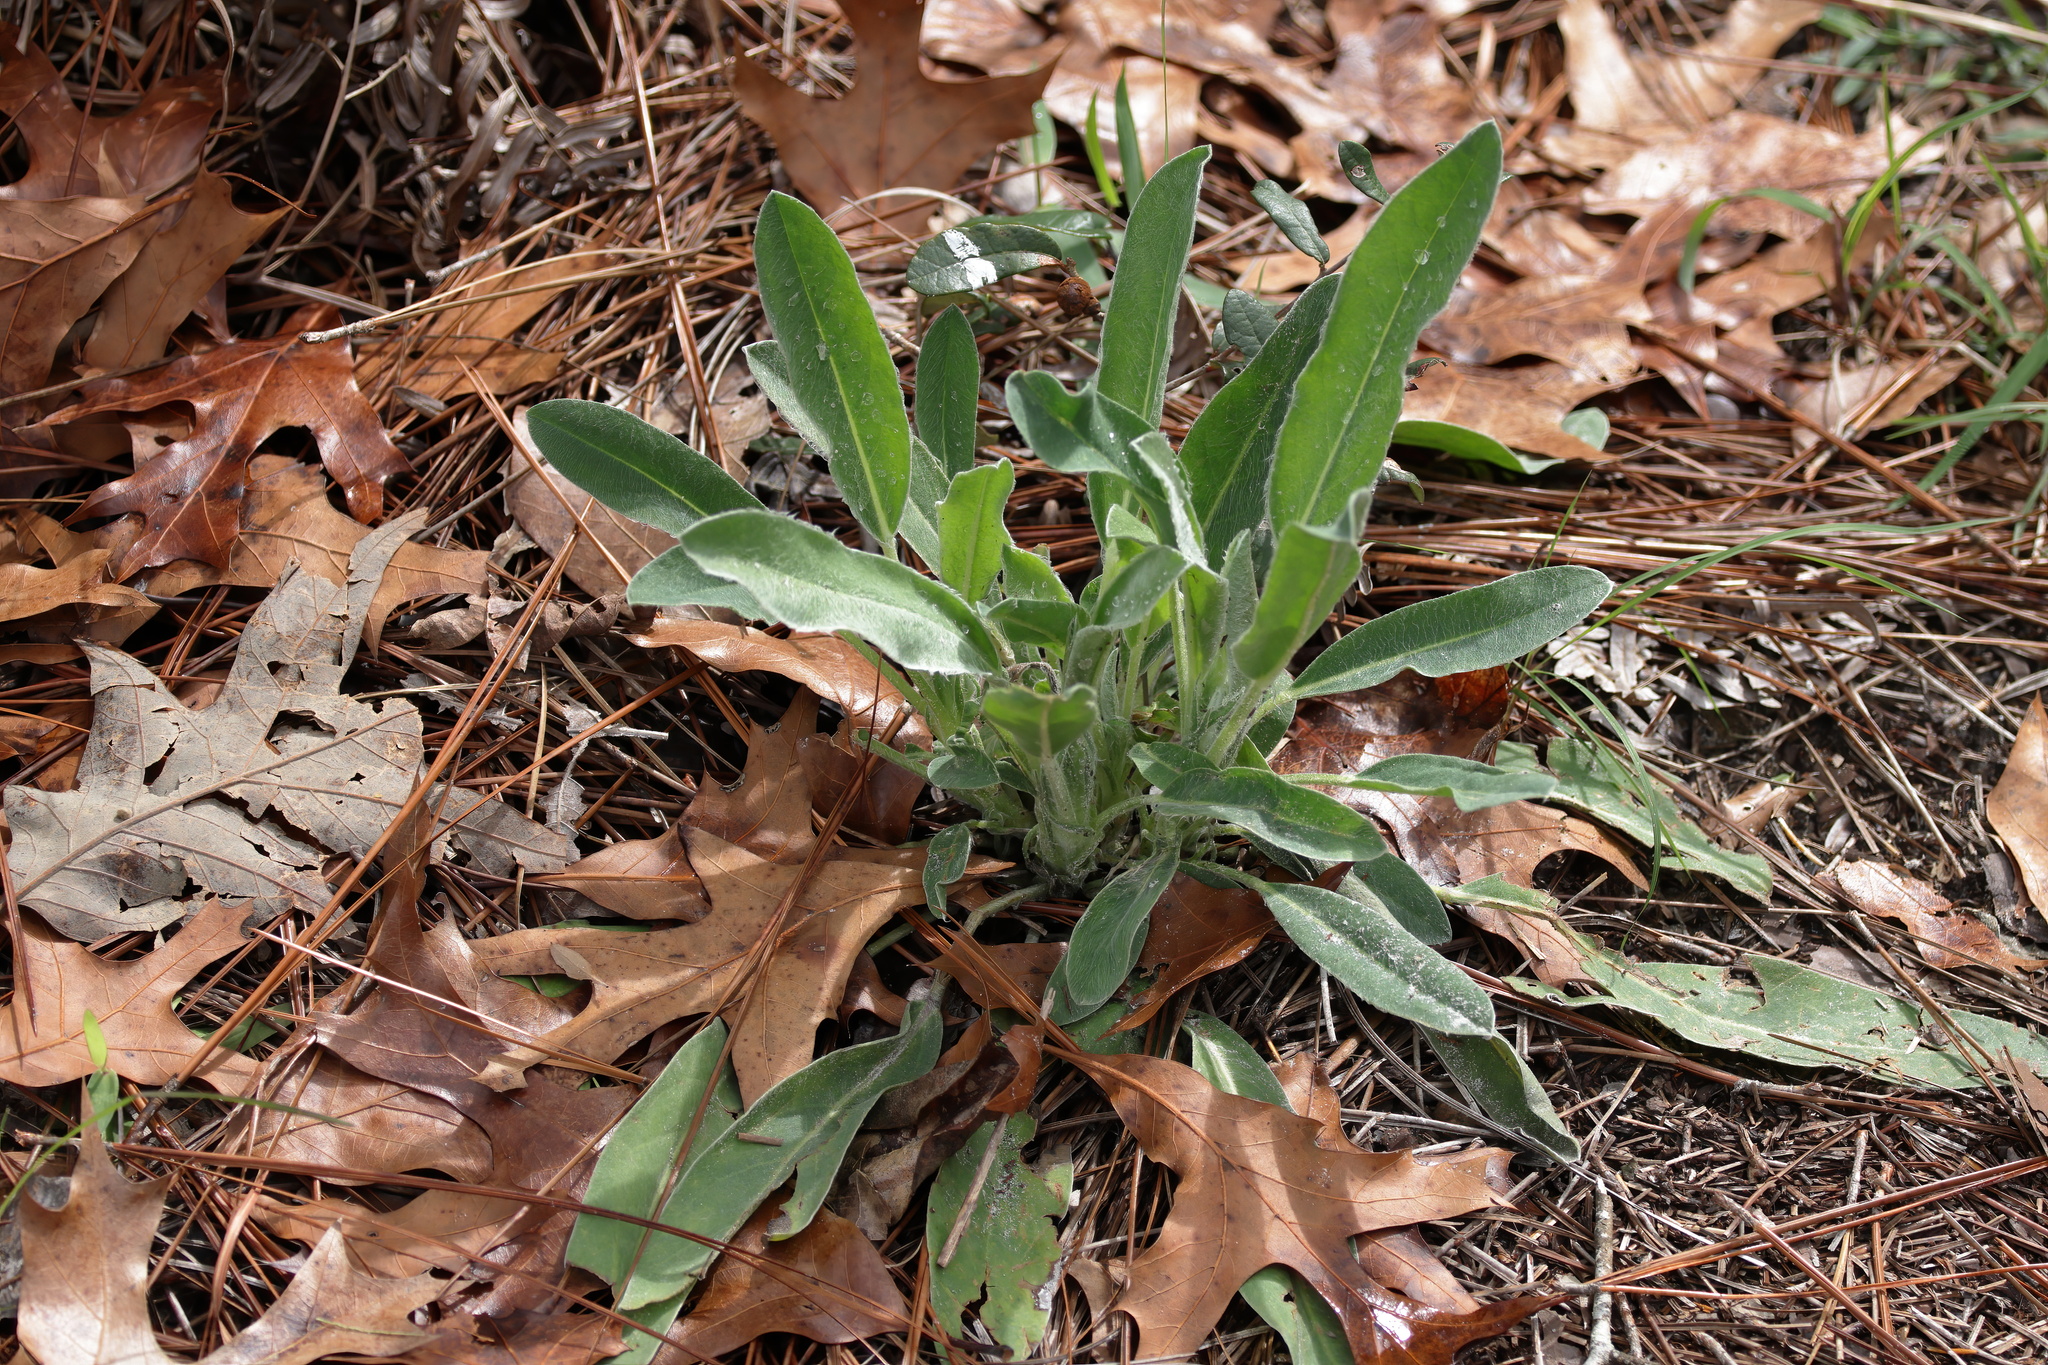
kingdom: Plantae
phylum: Tracheophyta
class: Magnoliopsida
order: Fabales
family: Fabaceae
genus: Lupinus
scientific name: Lupinus villosus
